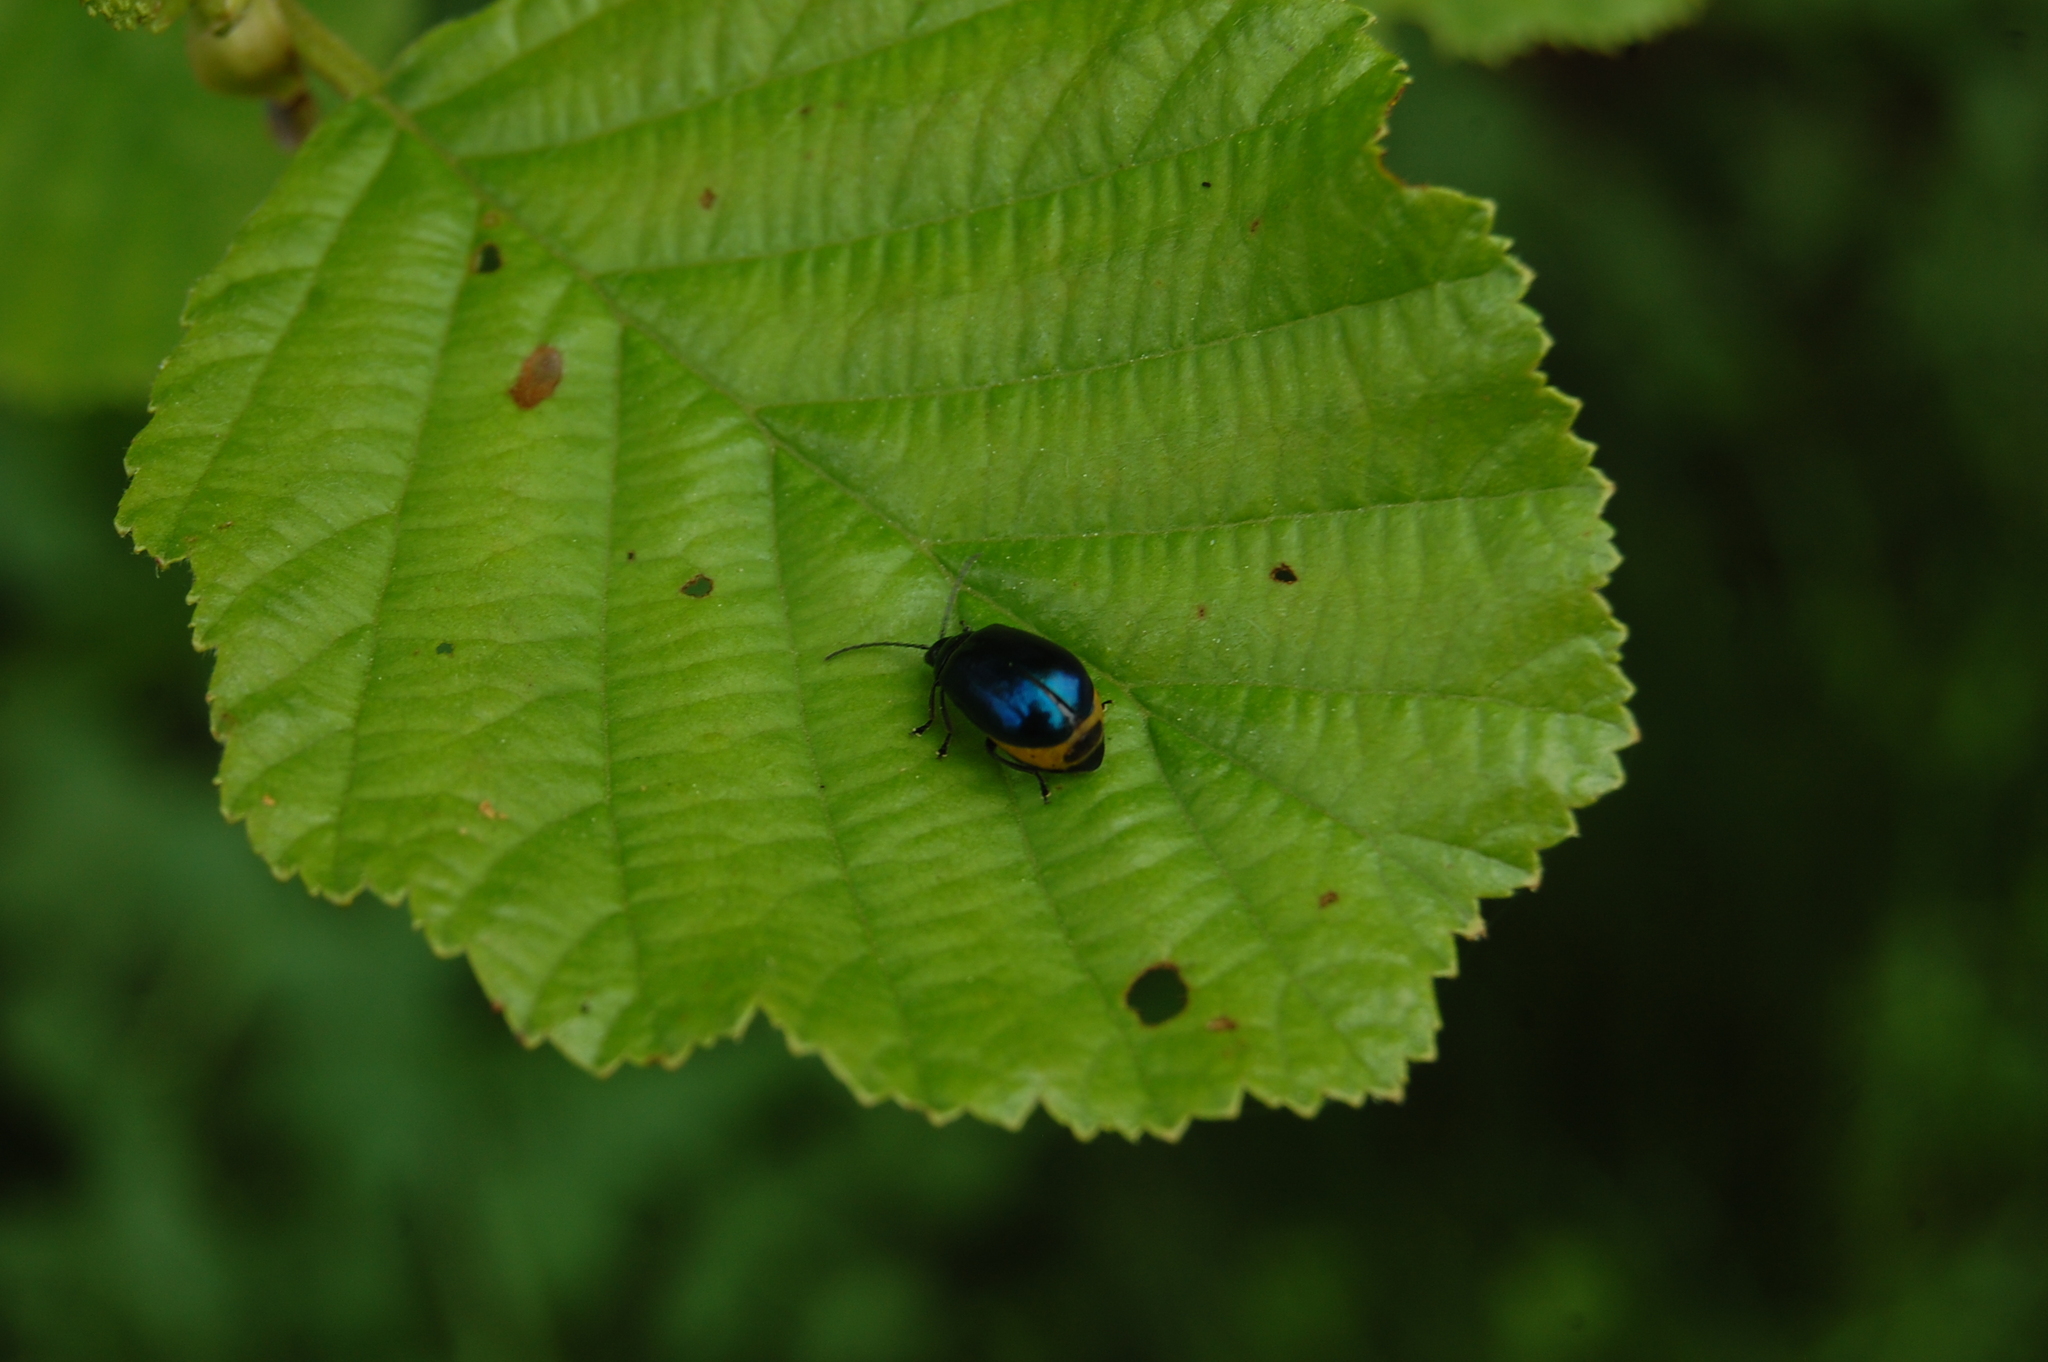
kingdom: Animalia
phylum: Arthropoda
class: Insecta
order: Coleoptera
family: Chrysomelidae
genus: Agelastica
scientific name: Agelastica alni
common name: Alder leaf beetle
